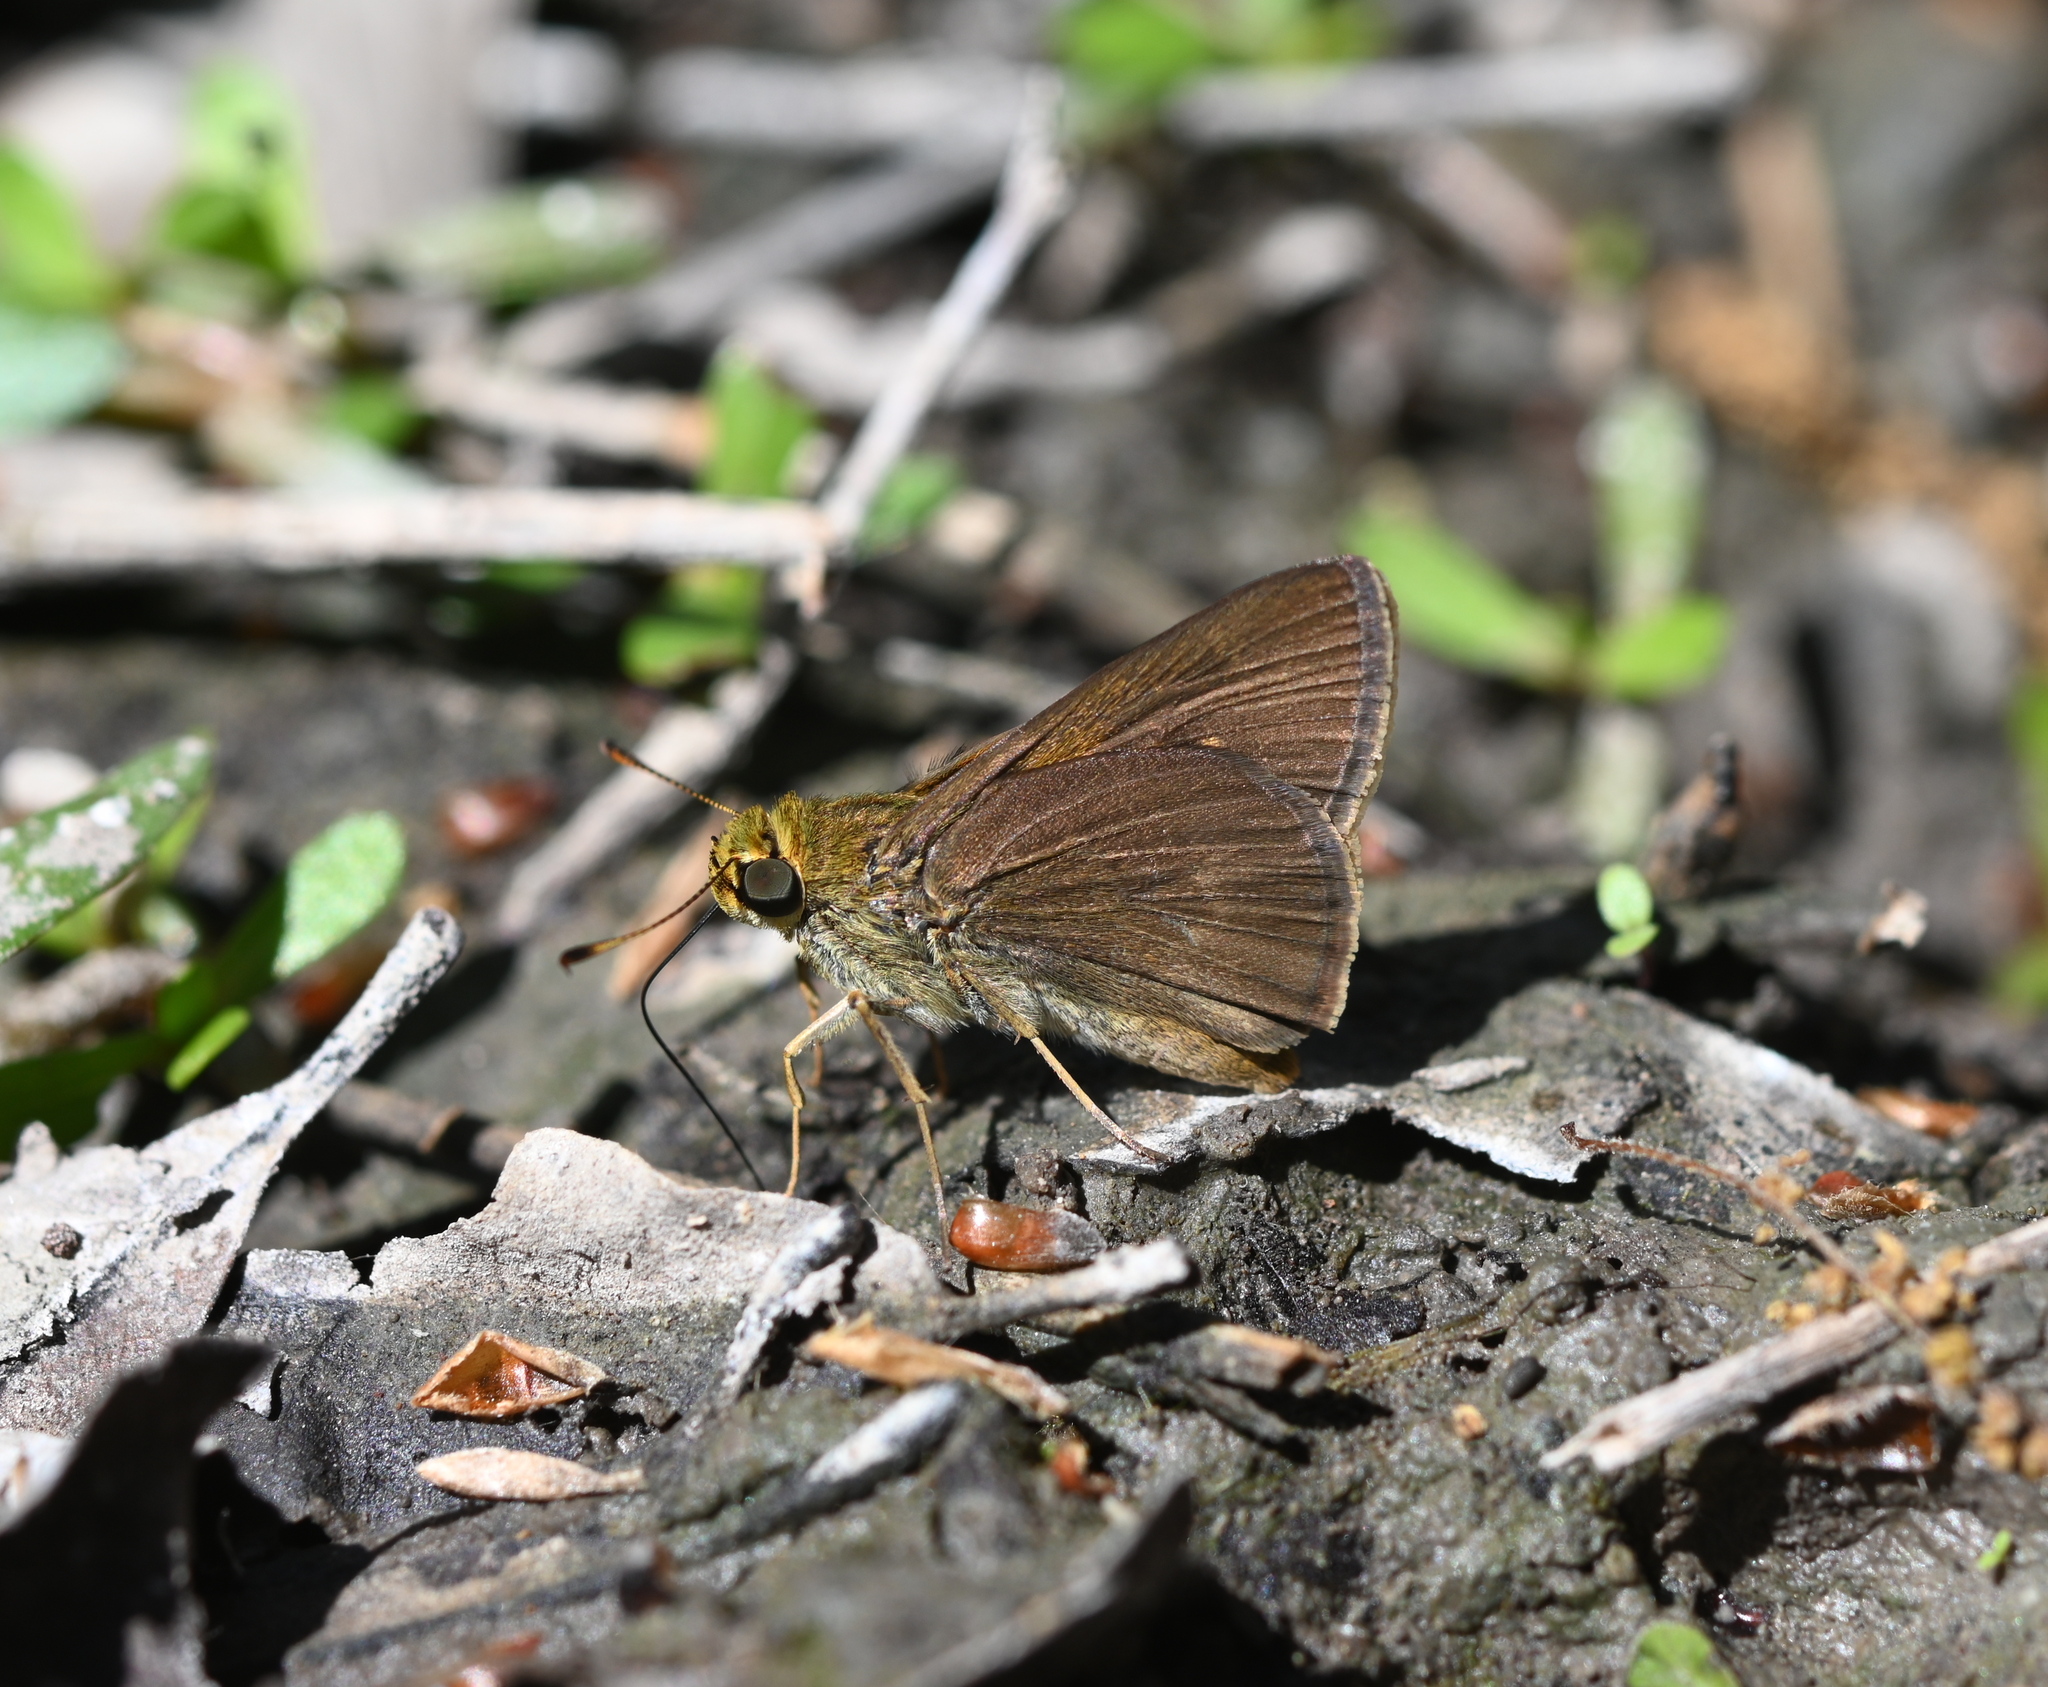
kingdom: Animalia
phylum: Arthropoda
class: Insecta
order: Lepidoptera
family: Hesperiidae
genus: Euphyes
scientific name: Euphyes vestris
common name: Dun skipper
